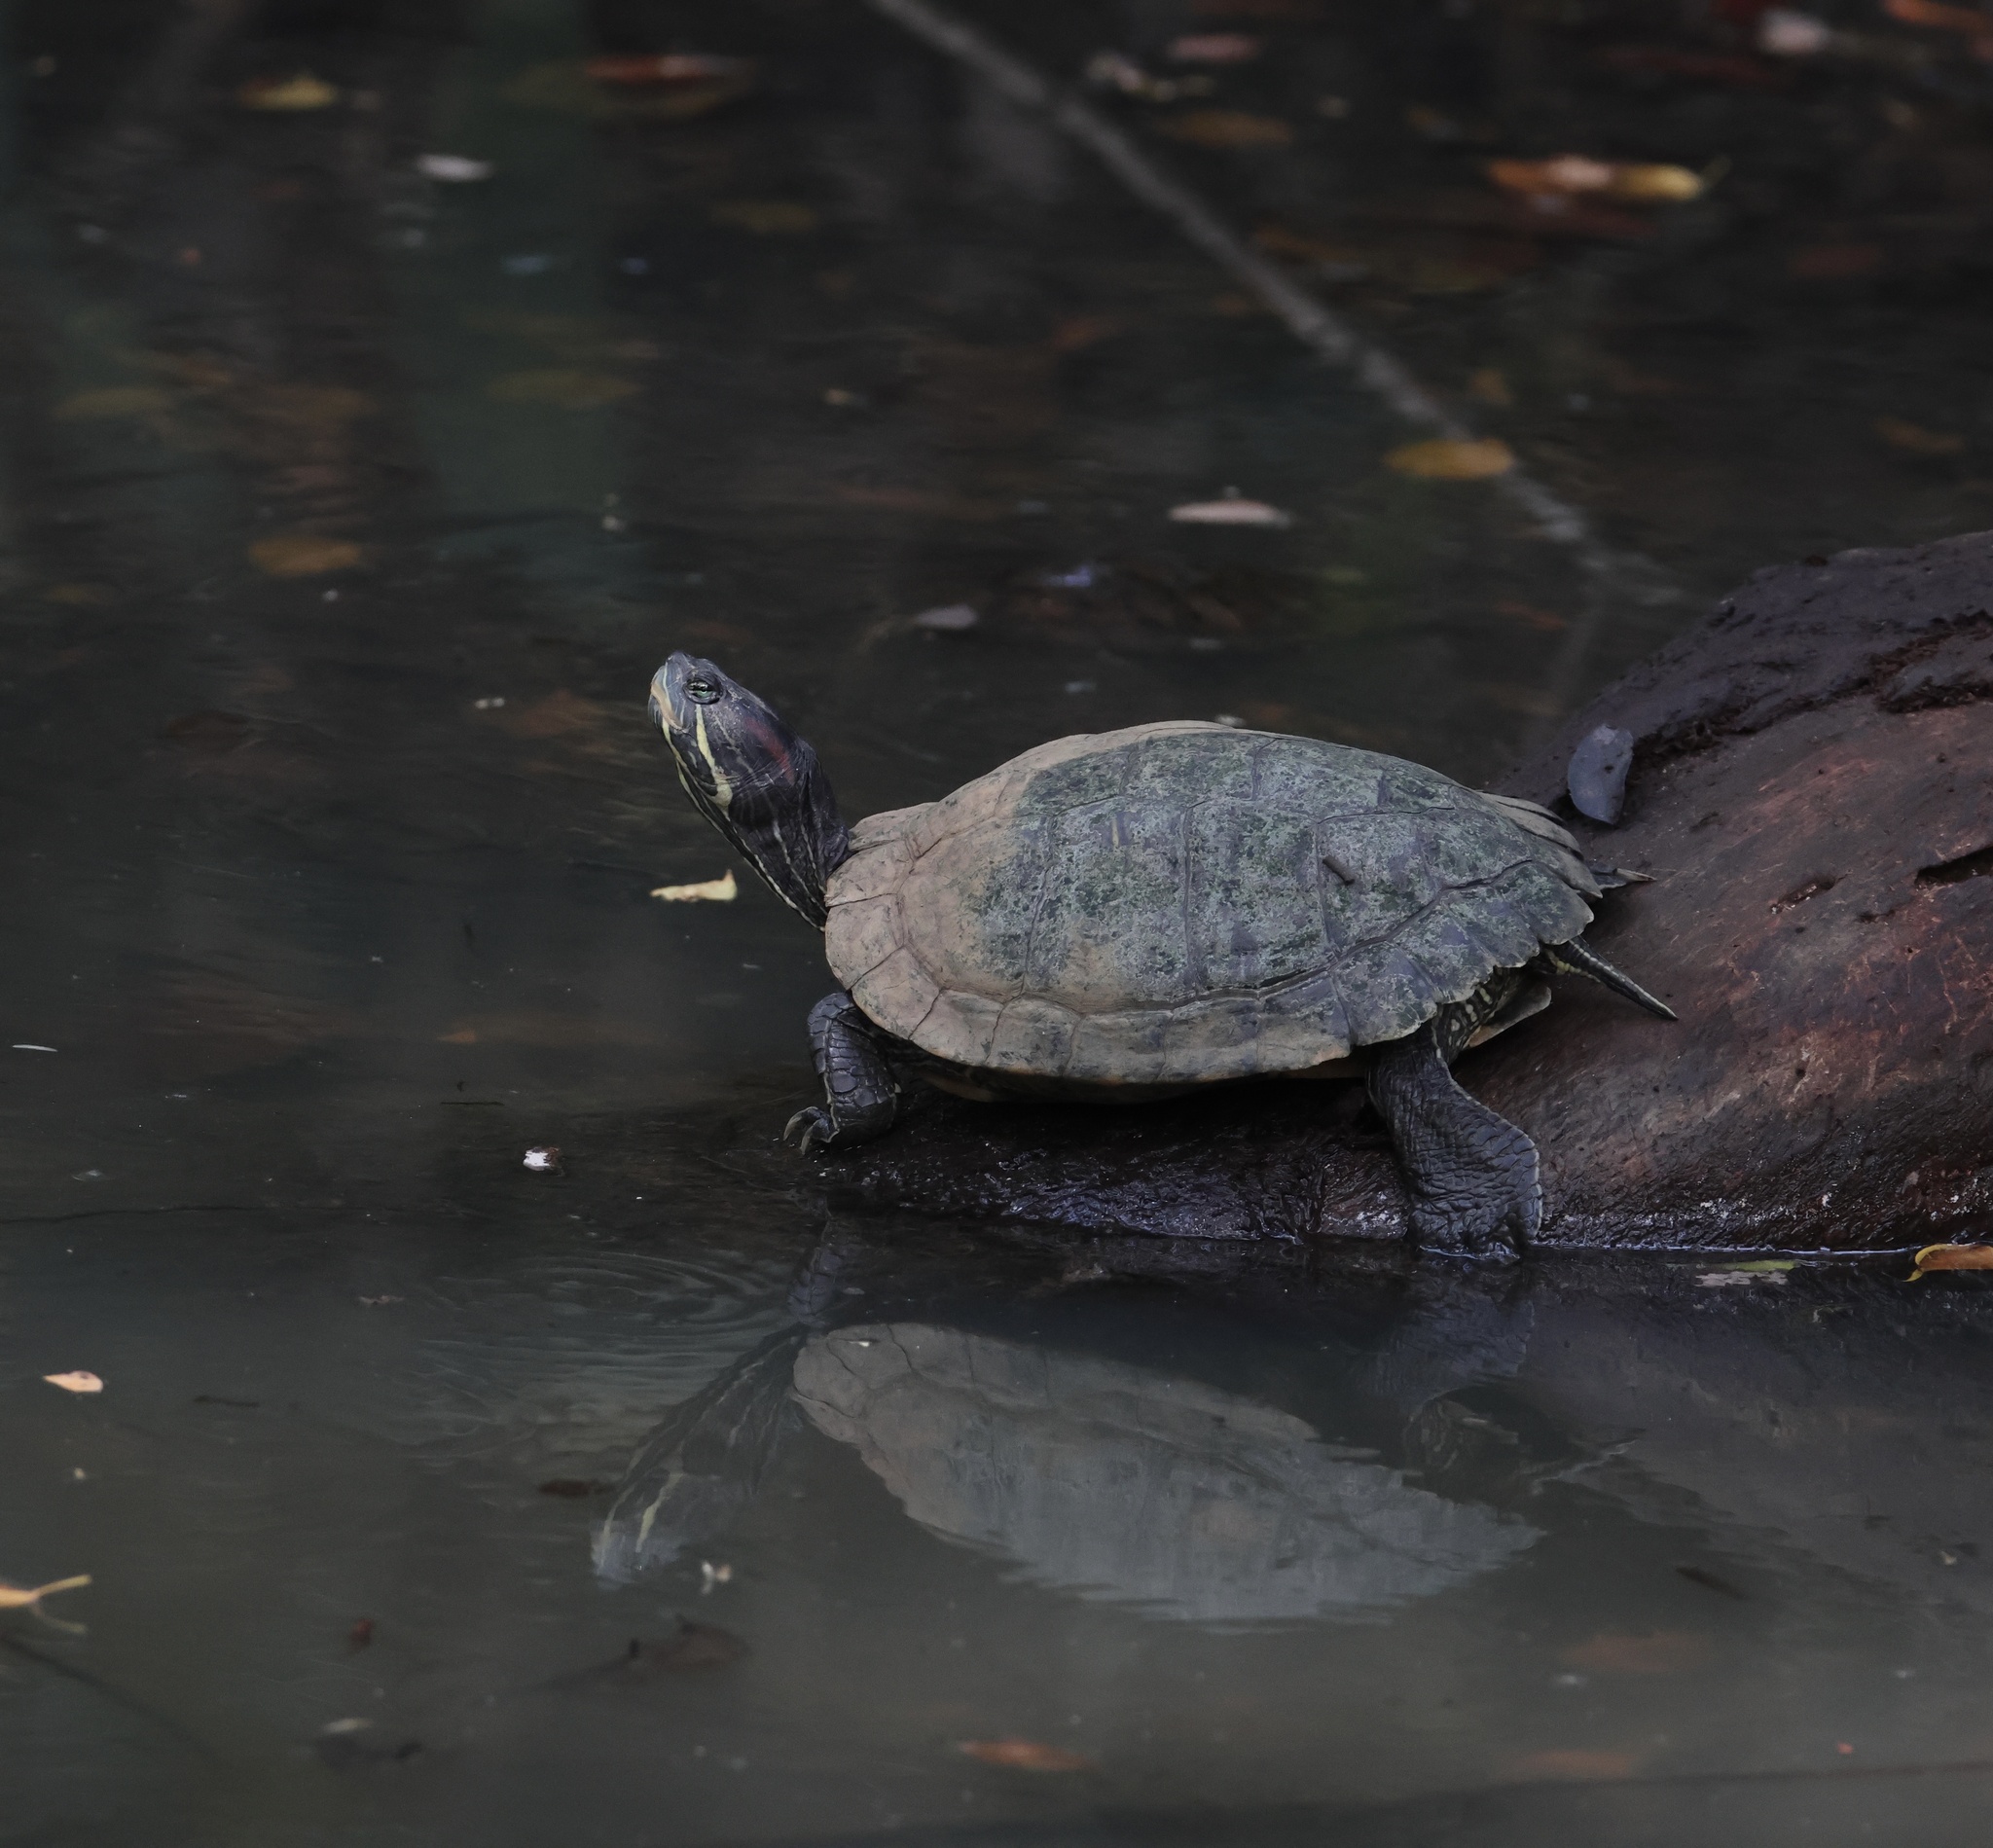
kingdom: Animalia
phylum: Chordata
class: Testudines
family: Emydidae
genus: Trachemys
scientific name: Trachemys scripta
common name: Slider
